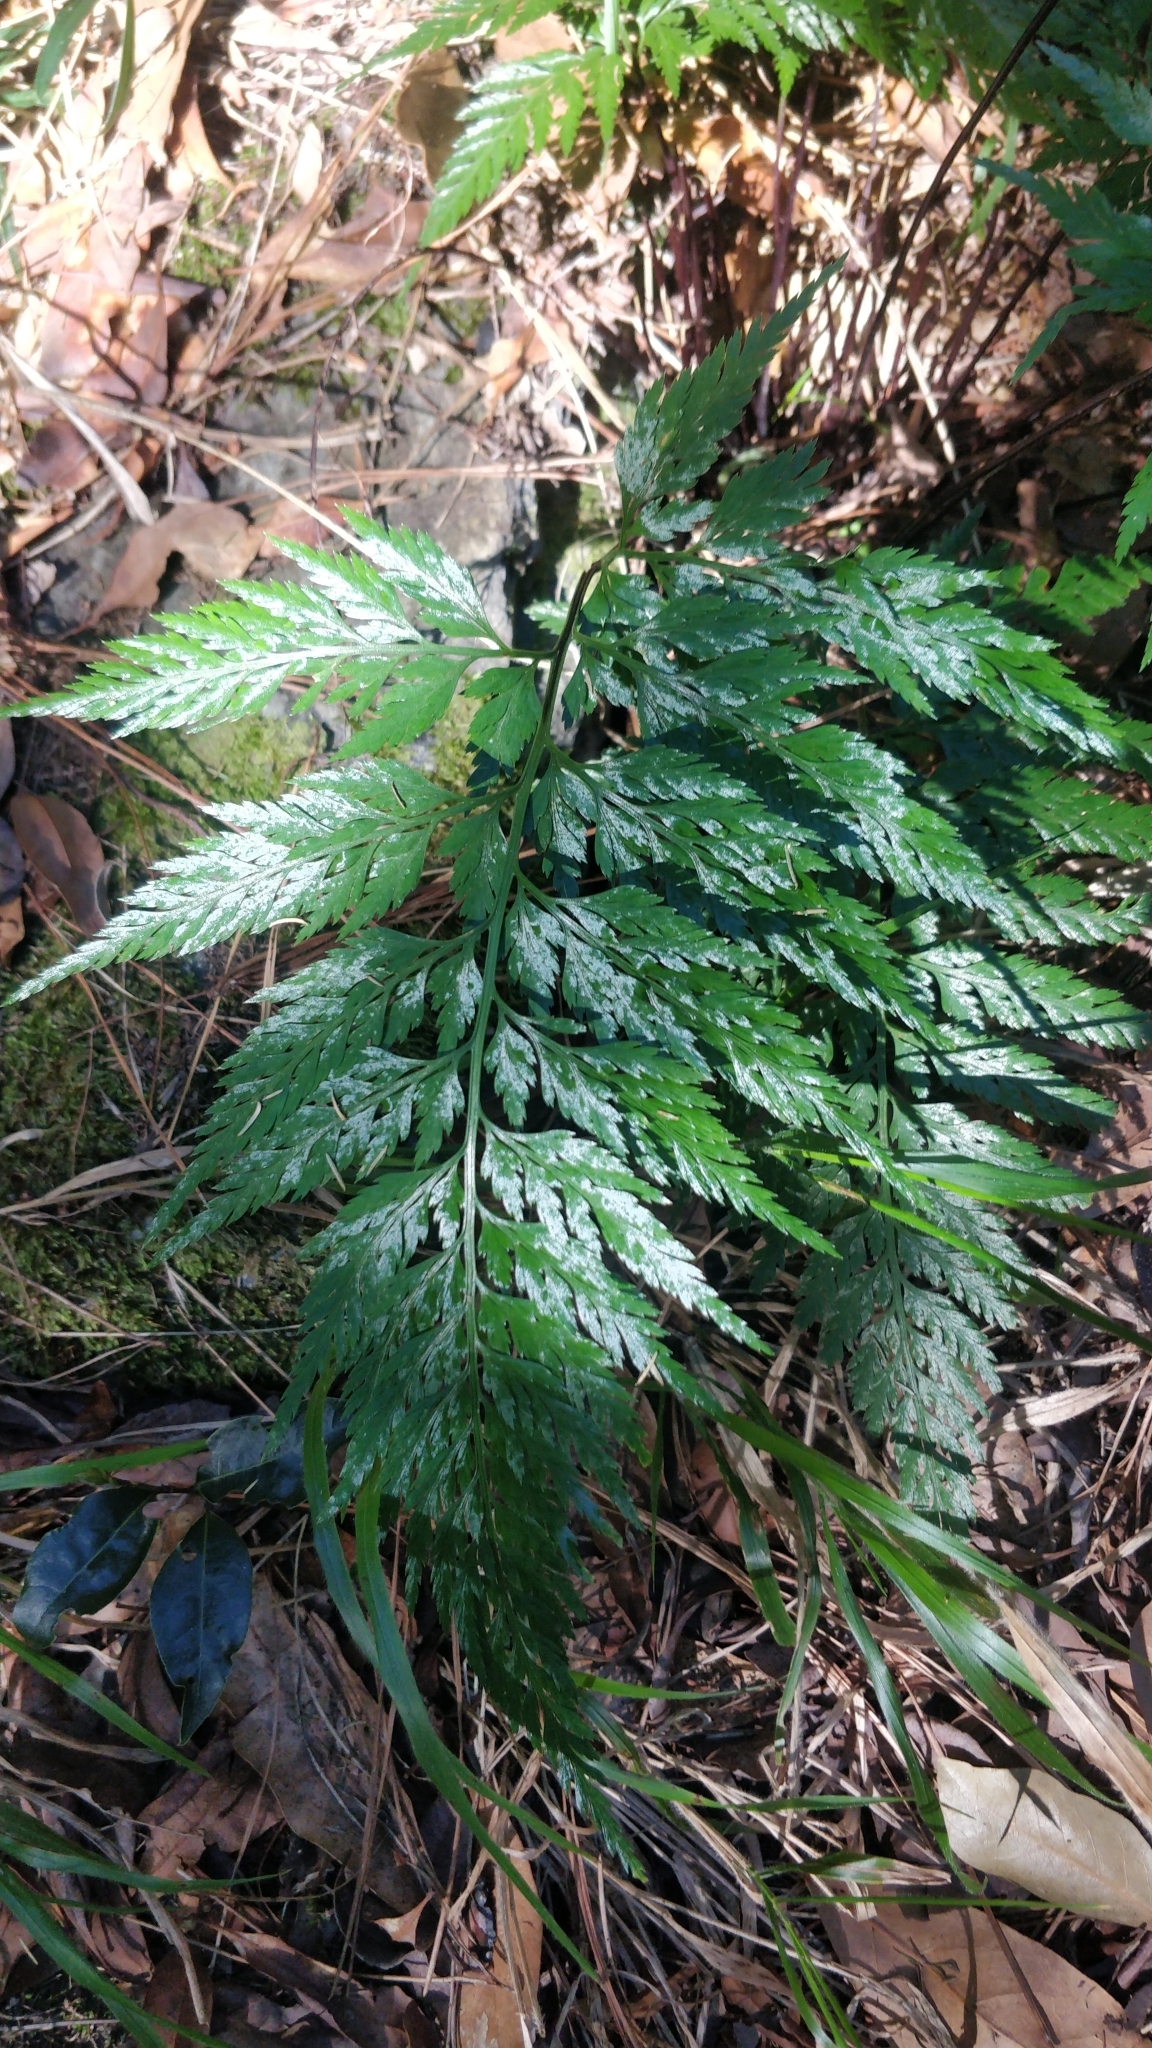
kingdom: Plantae
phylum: Tracheophyta
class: Polypodiopsida
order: Polypodiales
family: Aspleniaceae
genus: Asplenium
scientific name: Asplenium onopteris
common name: Irish spleenwort
